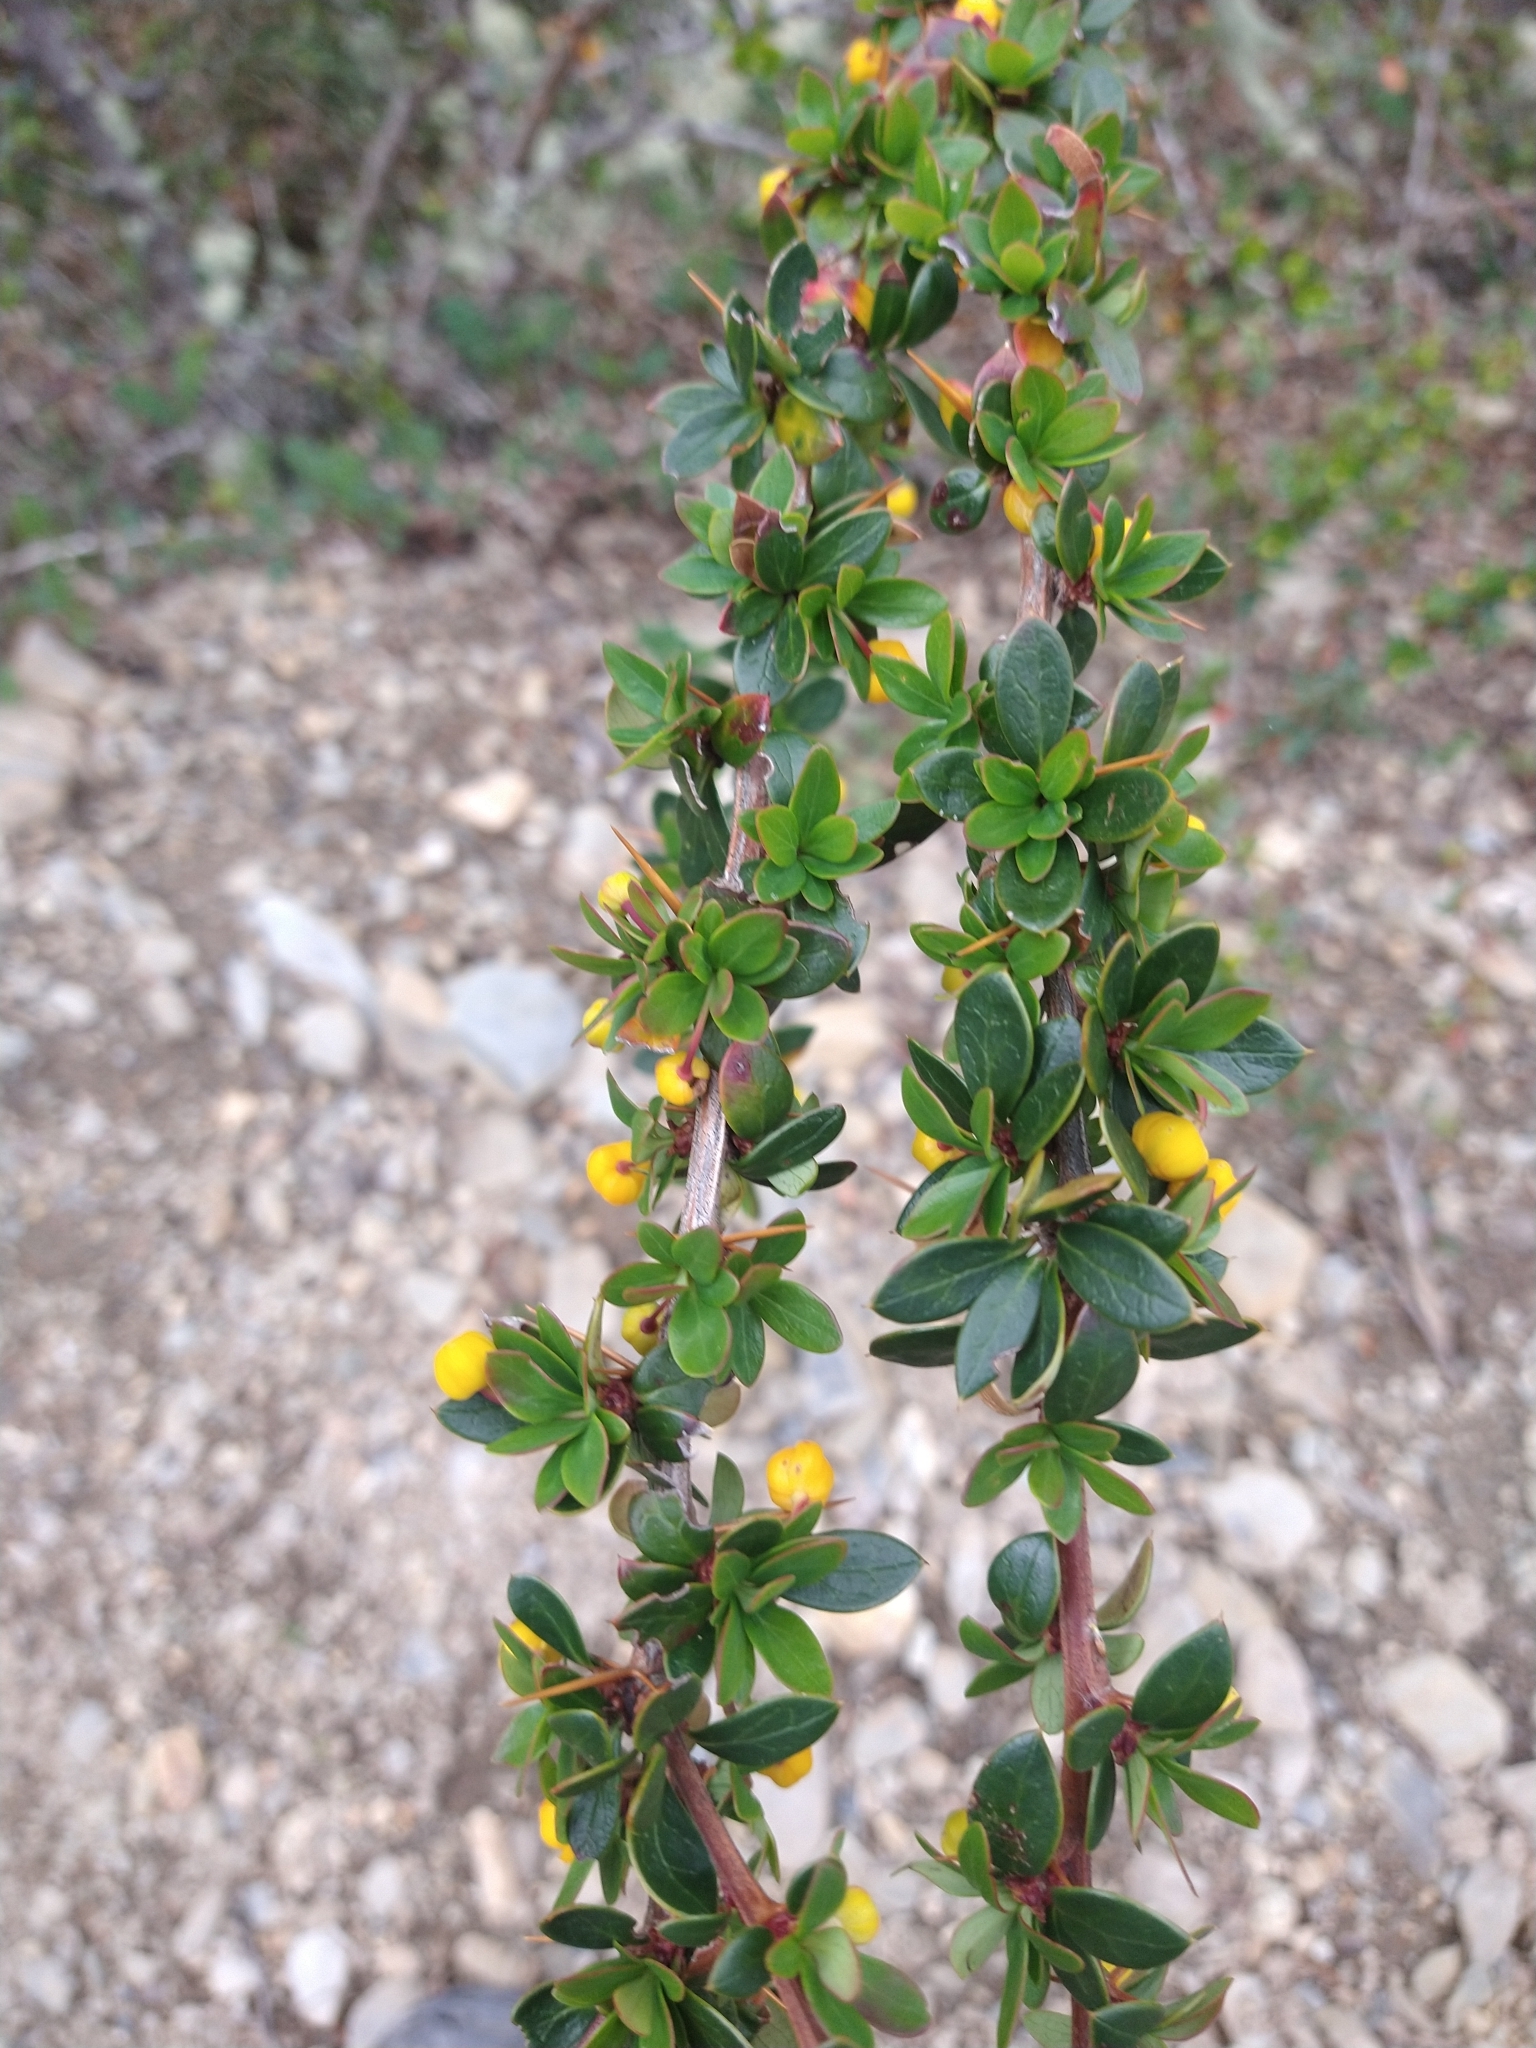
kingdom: Plantae
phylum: Tracheophyta
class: Magnoliopsida
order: Ranunculales
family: Berberidaceae
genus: Berberis
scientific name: Berberis microphylla
